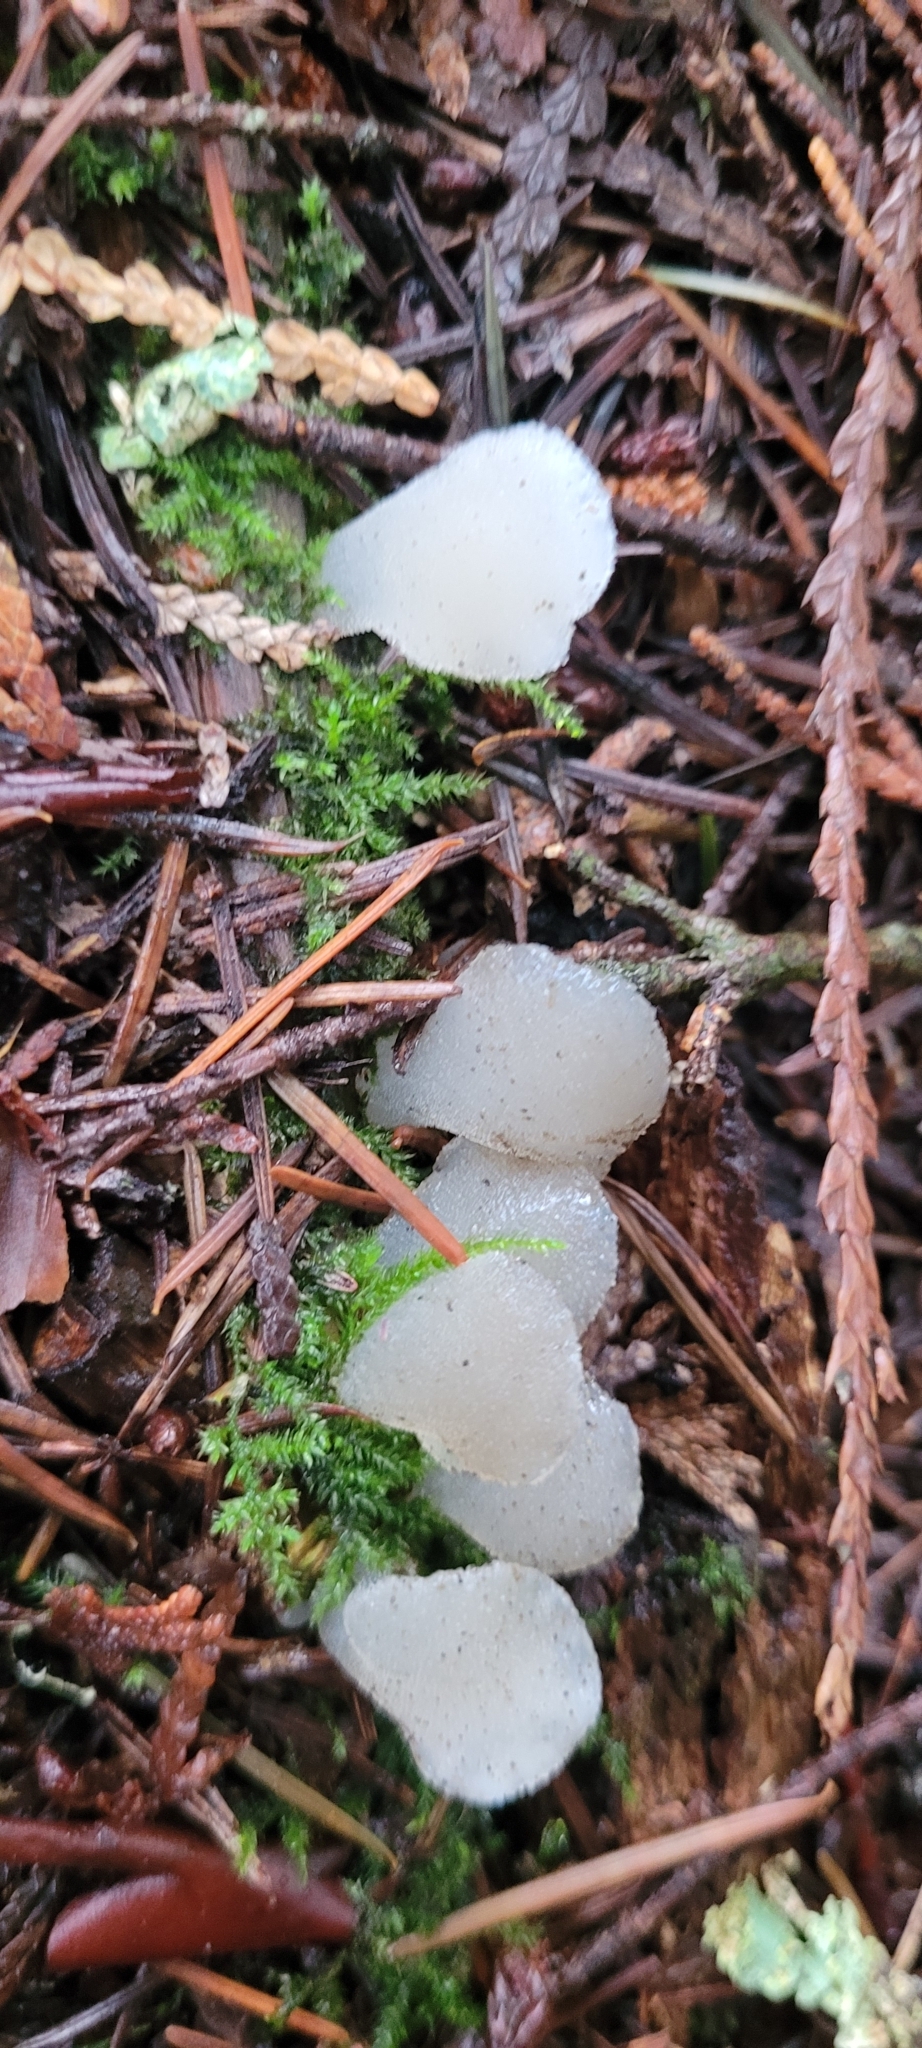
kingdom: Fungi
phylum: Basidiomycota
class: Agaricomycetes
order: Auriculariales
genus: Pseudohydnum
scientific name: Pseudohydnum gelatinosum
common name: Jelly tongue
